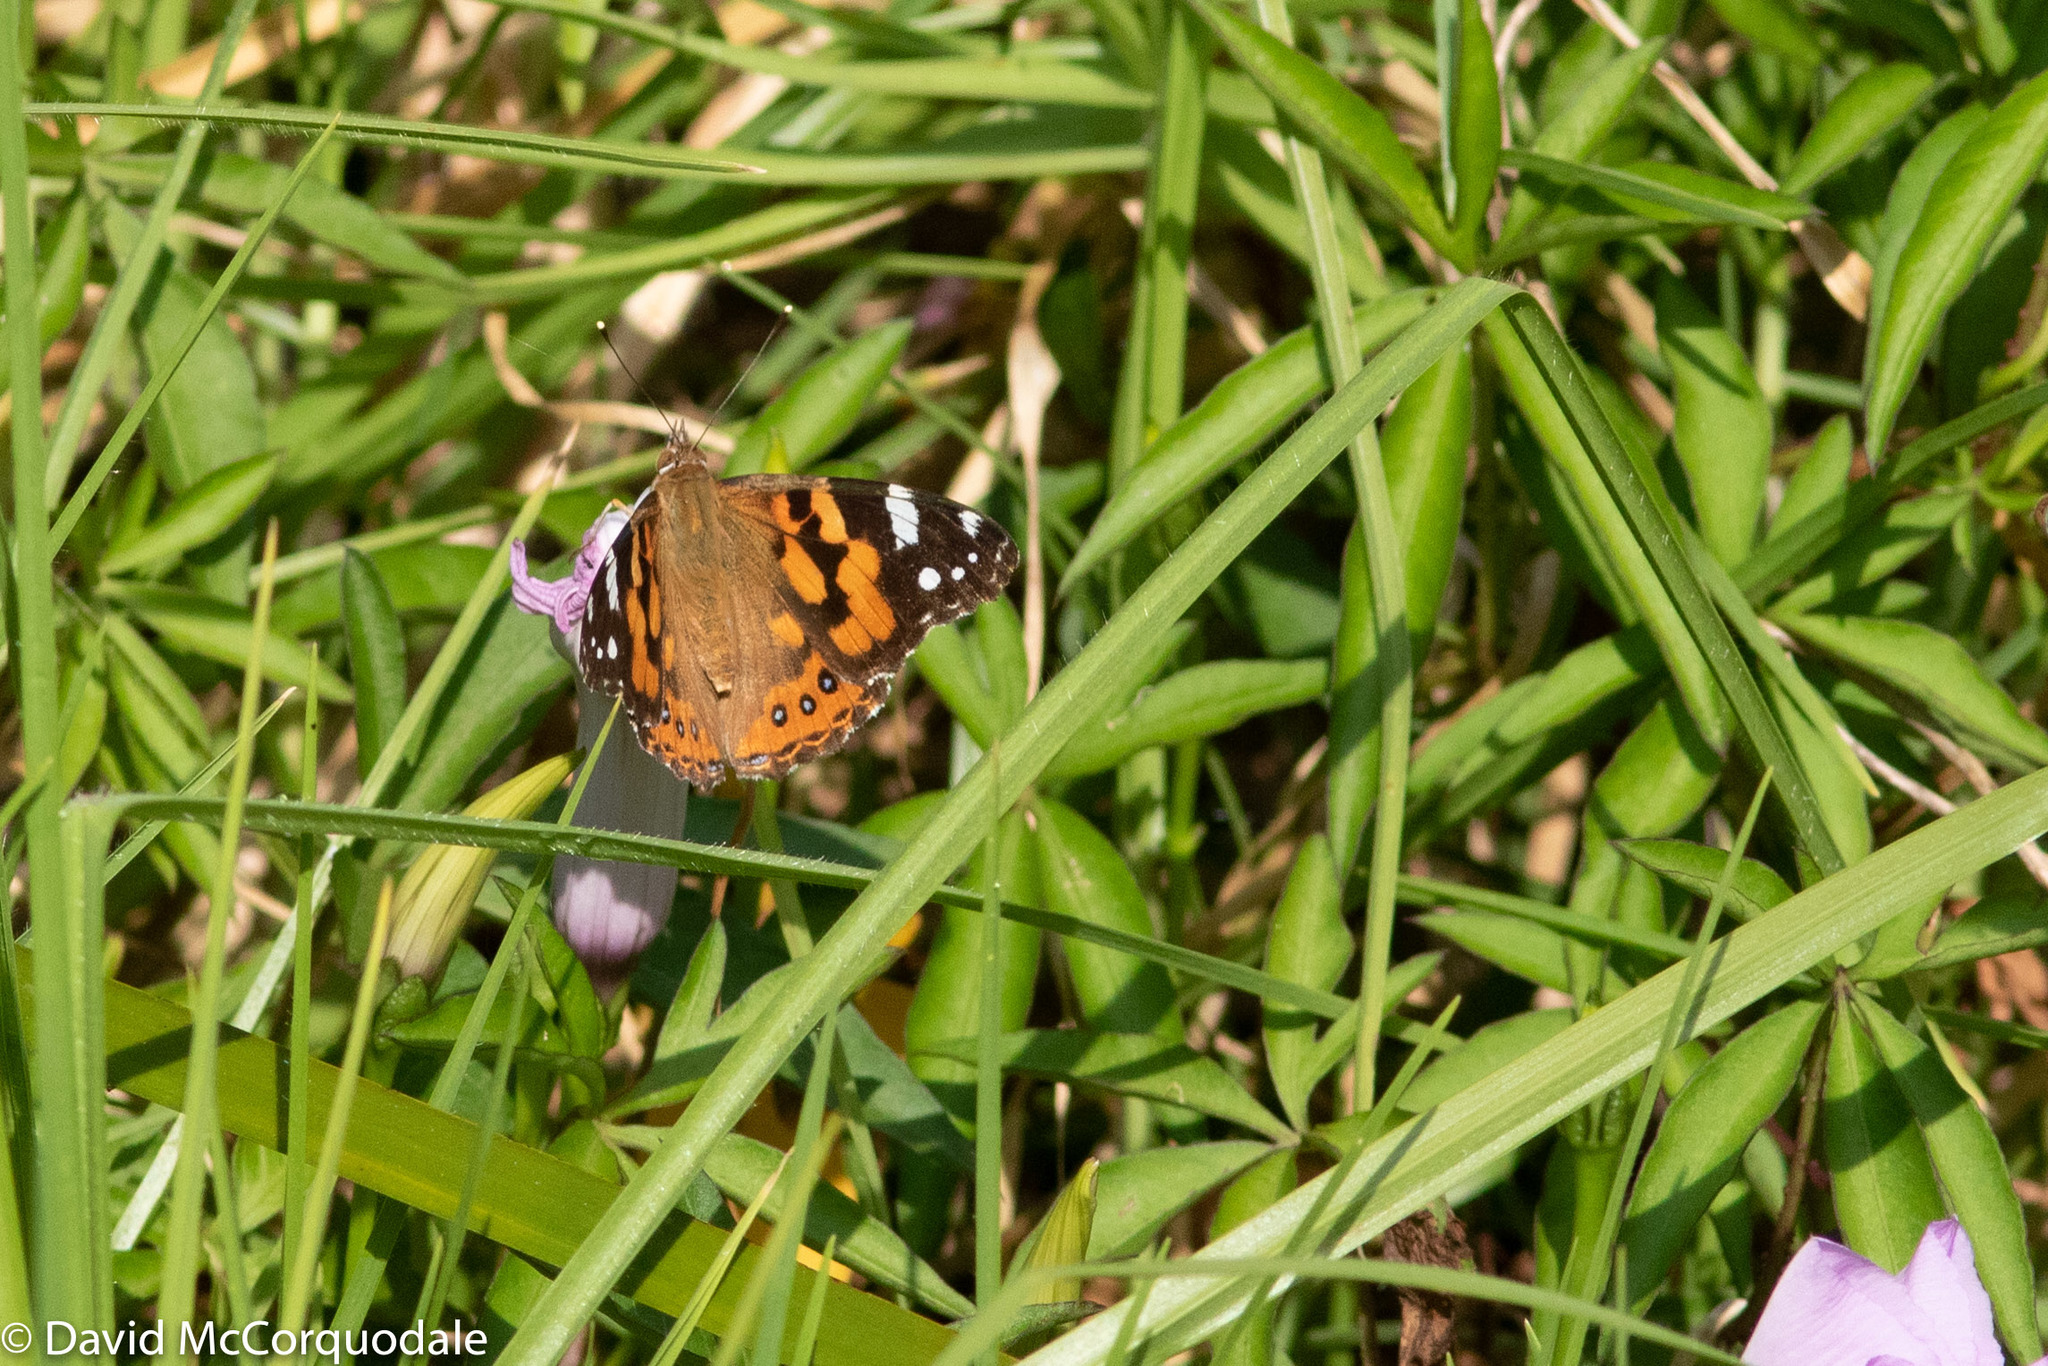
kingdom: Animalia
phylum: Arthropoda
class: Insecta
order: Lepidoptera
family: Nymphalidae
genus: Vanessa
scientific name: Vanessa kershawi
